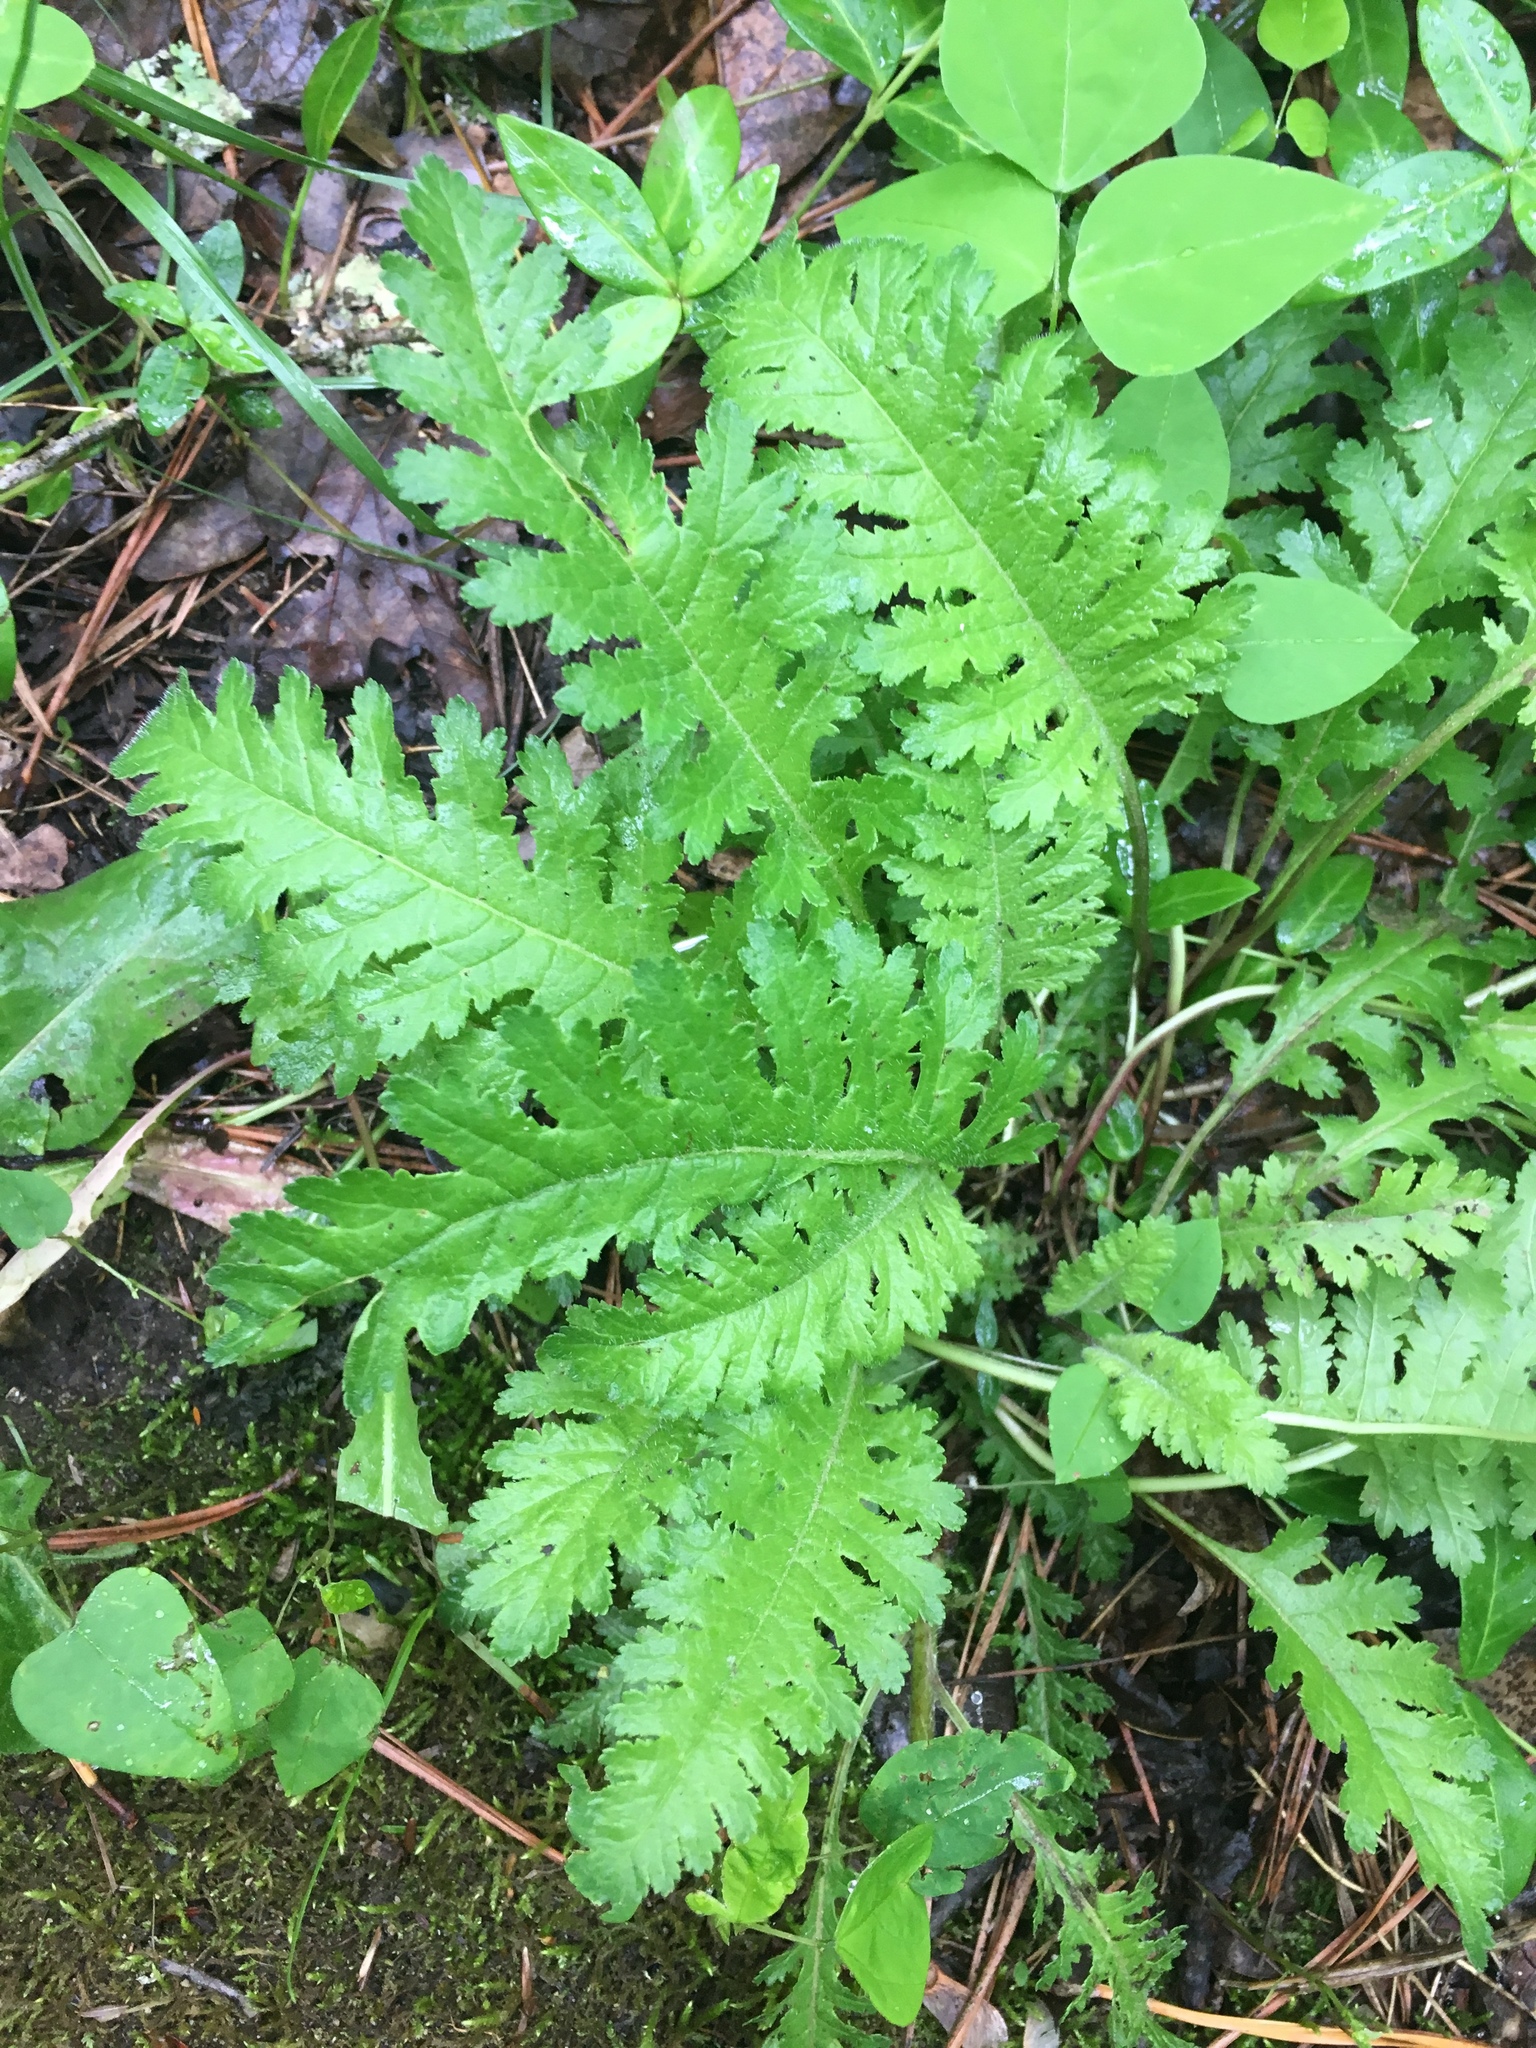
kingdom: Plantae
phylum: Tracheophyta
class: Magnoliopsida
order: Lamiales
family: Orobanchaceae
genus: Pedicularis
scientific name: Pedicularis canadensis
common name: Early lousewort
